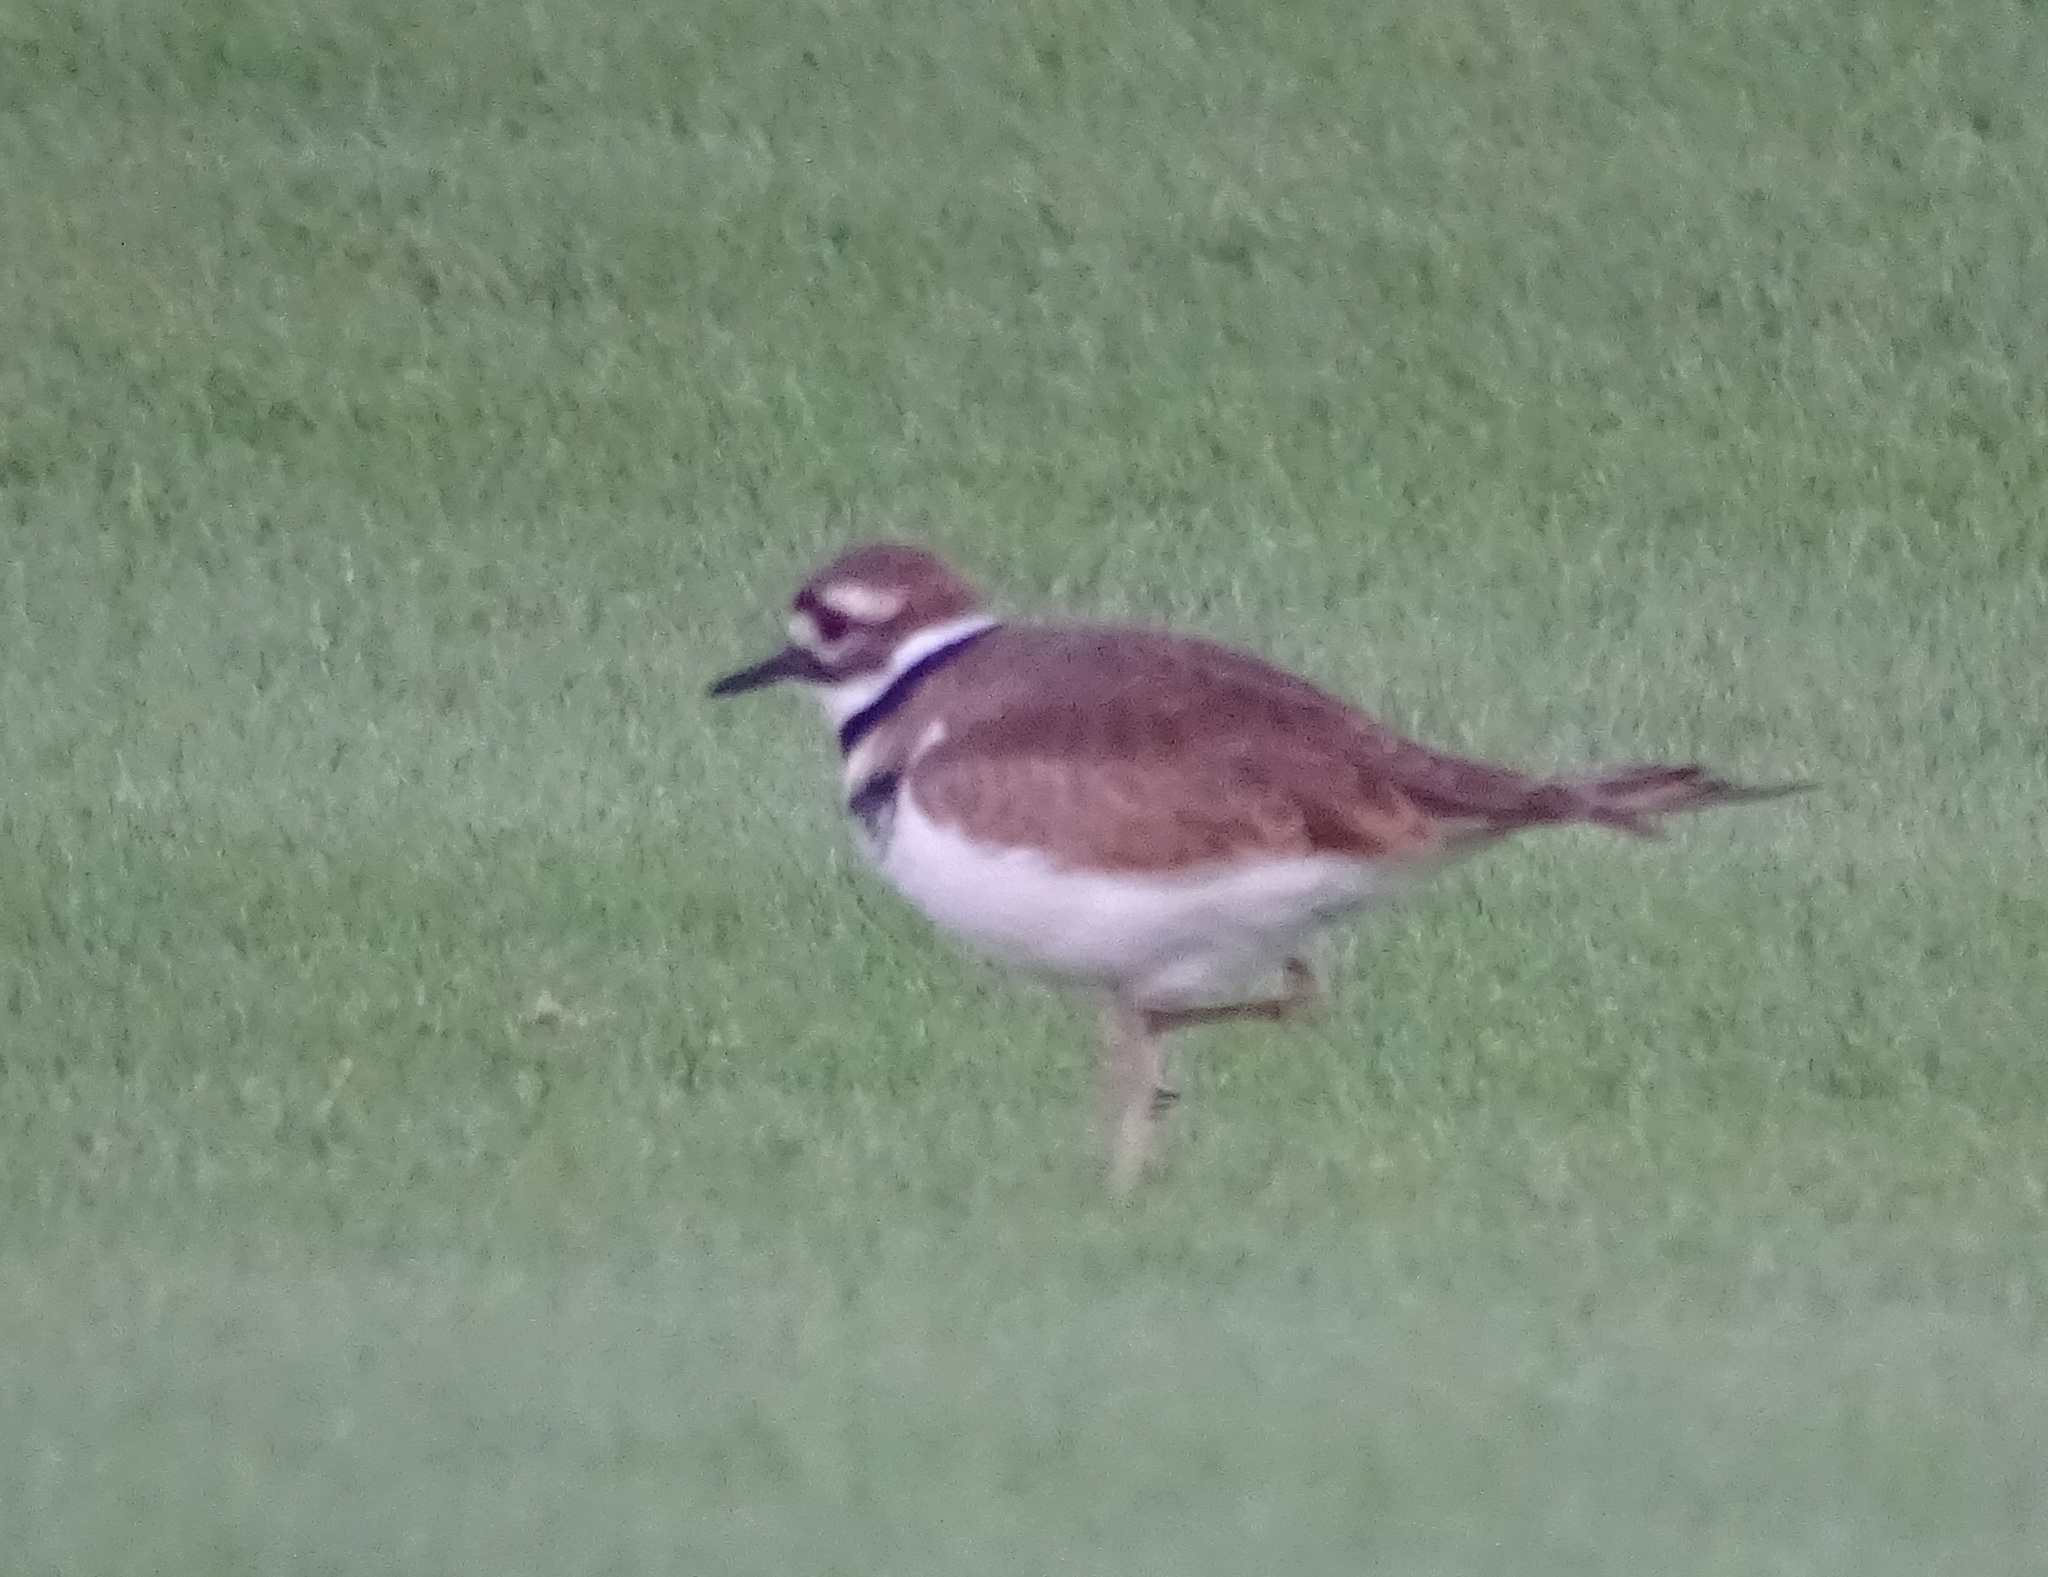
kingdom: Animalia
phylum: Chordata
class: Aves
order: Charadriiformes
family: Charadriidae
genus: Charadrius
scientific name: Charadrius vociferus
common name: Killdeer
